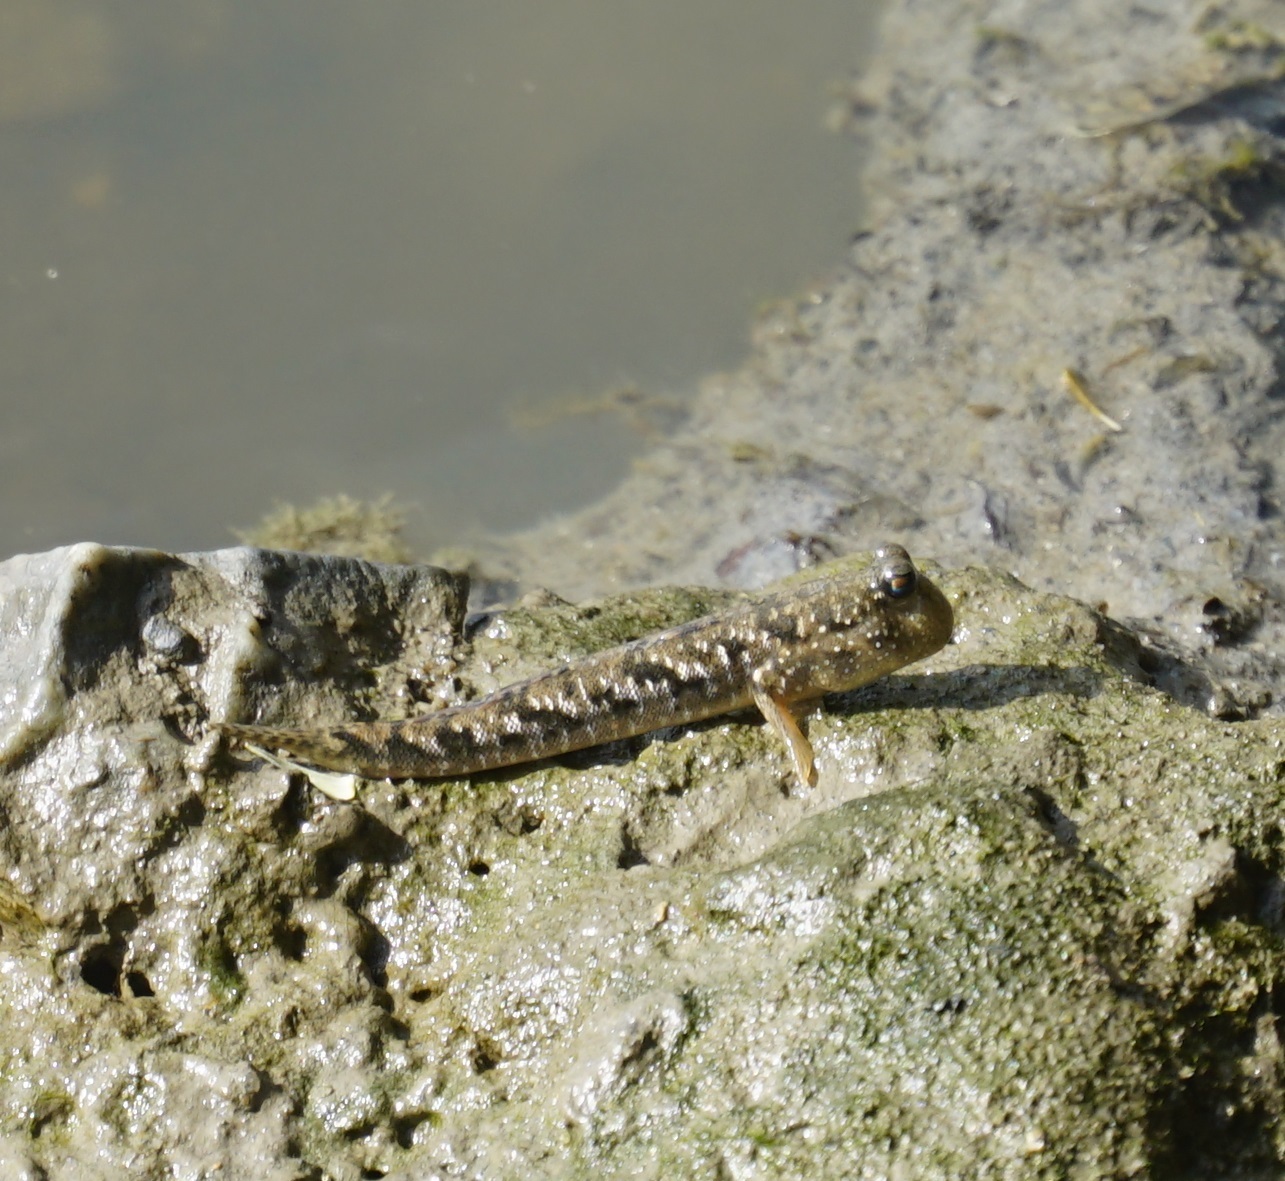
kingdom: Animalia
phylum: Chordata
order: Perciformes
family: Gobiidae
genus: Periophthalmus
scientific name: Periophthalmus argentilineatus
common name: Barred mudskipper
